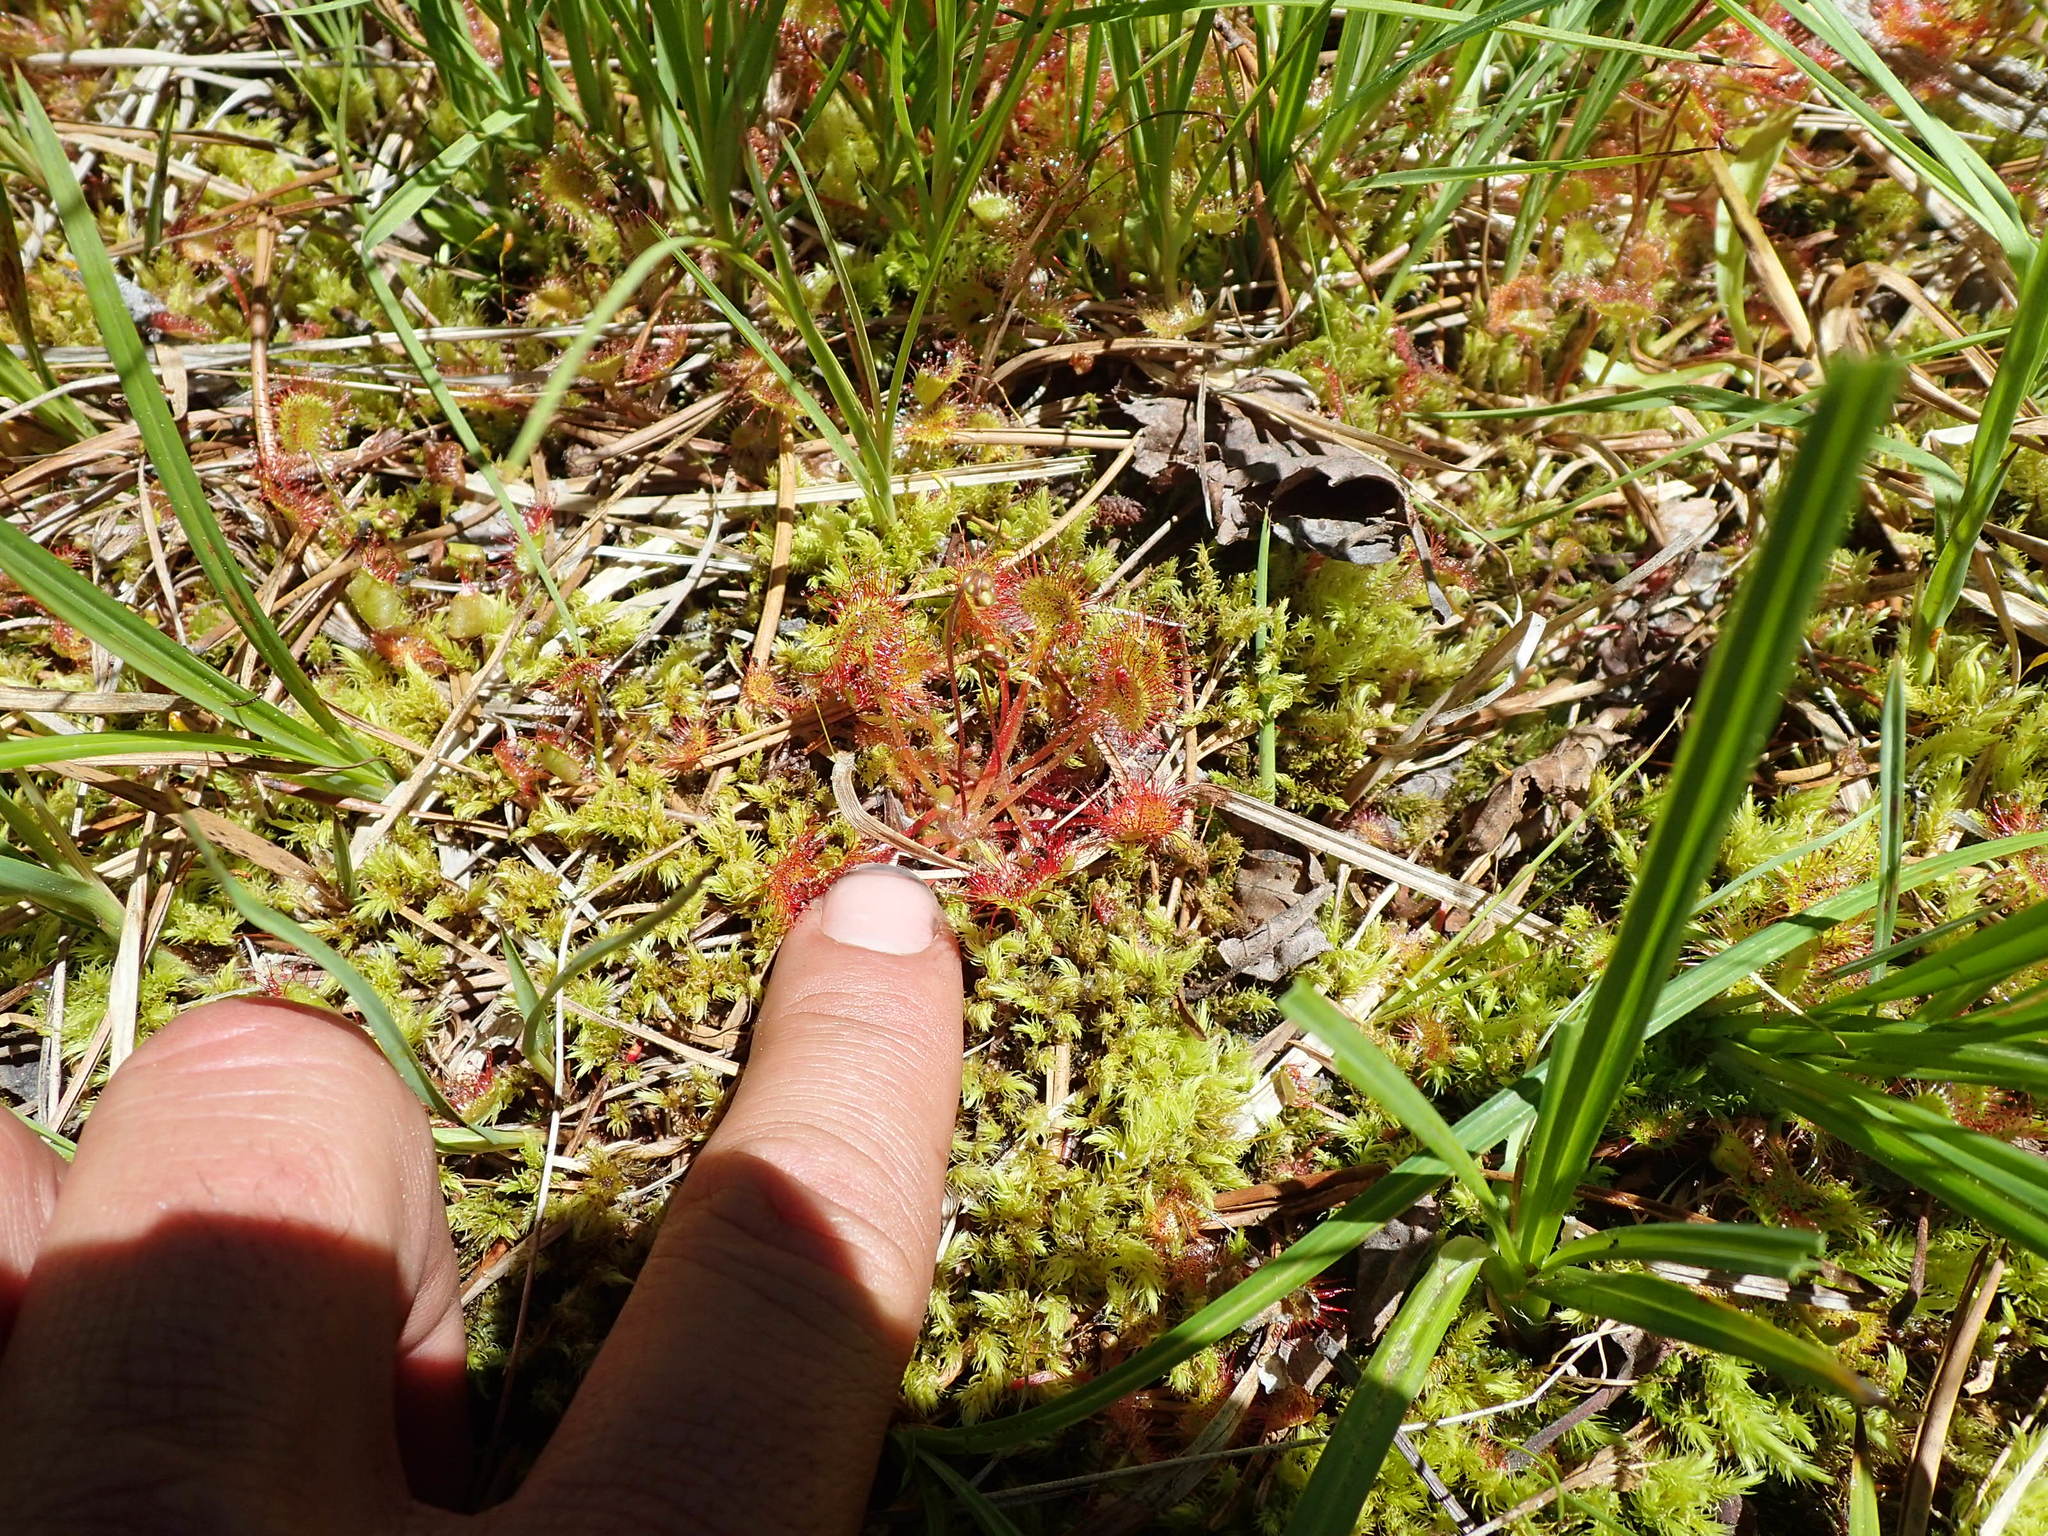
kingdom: Plantae
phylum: Tracheophyta
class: Magnoliopsida
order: Caryophyllales
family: Droseraceae
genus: Drosera
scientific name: Drosera rotundifolia
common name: Round-leaved sundew
